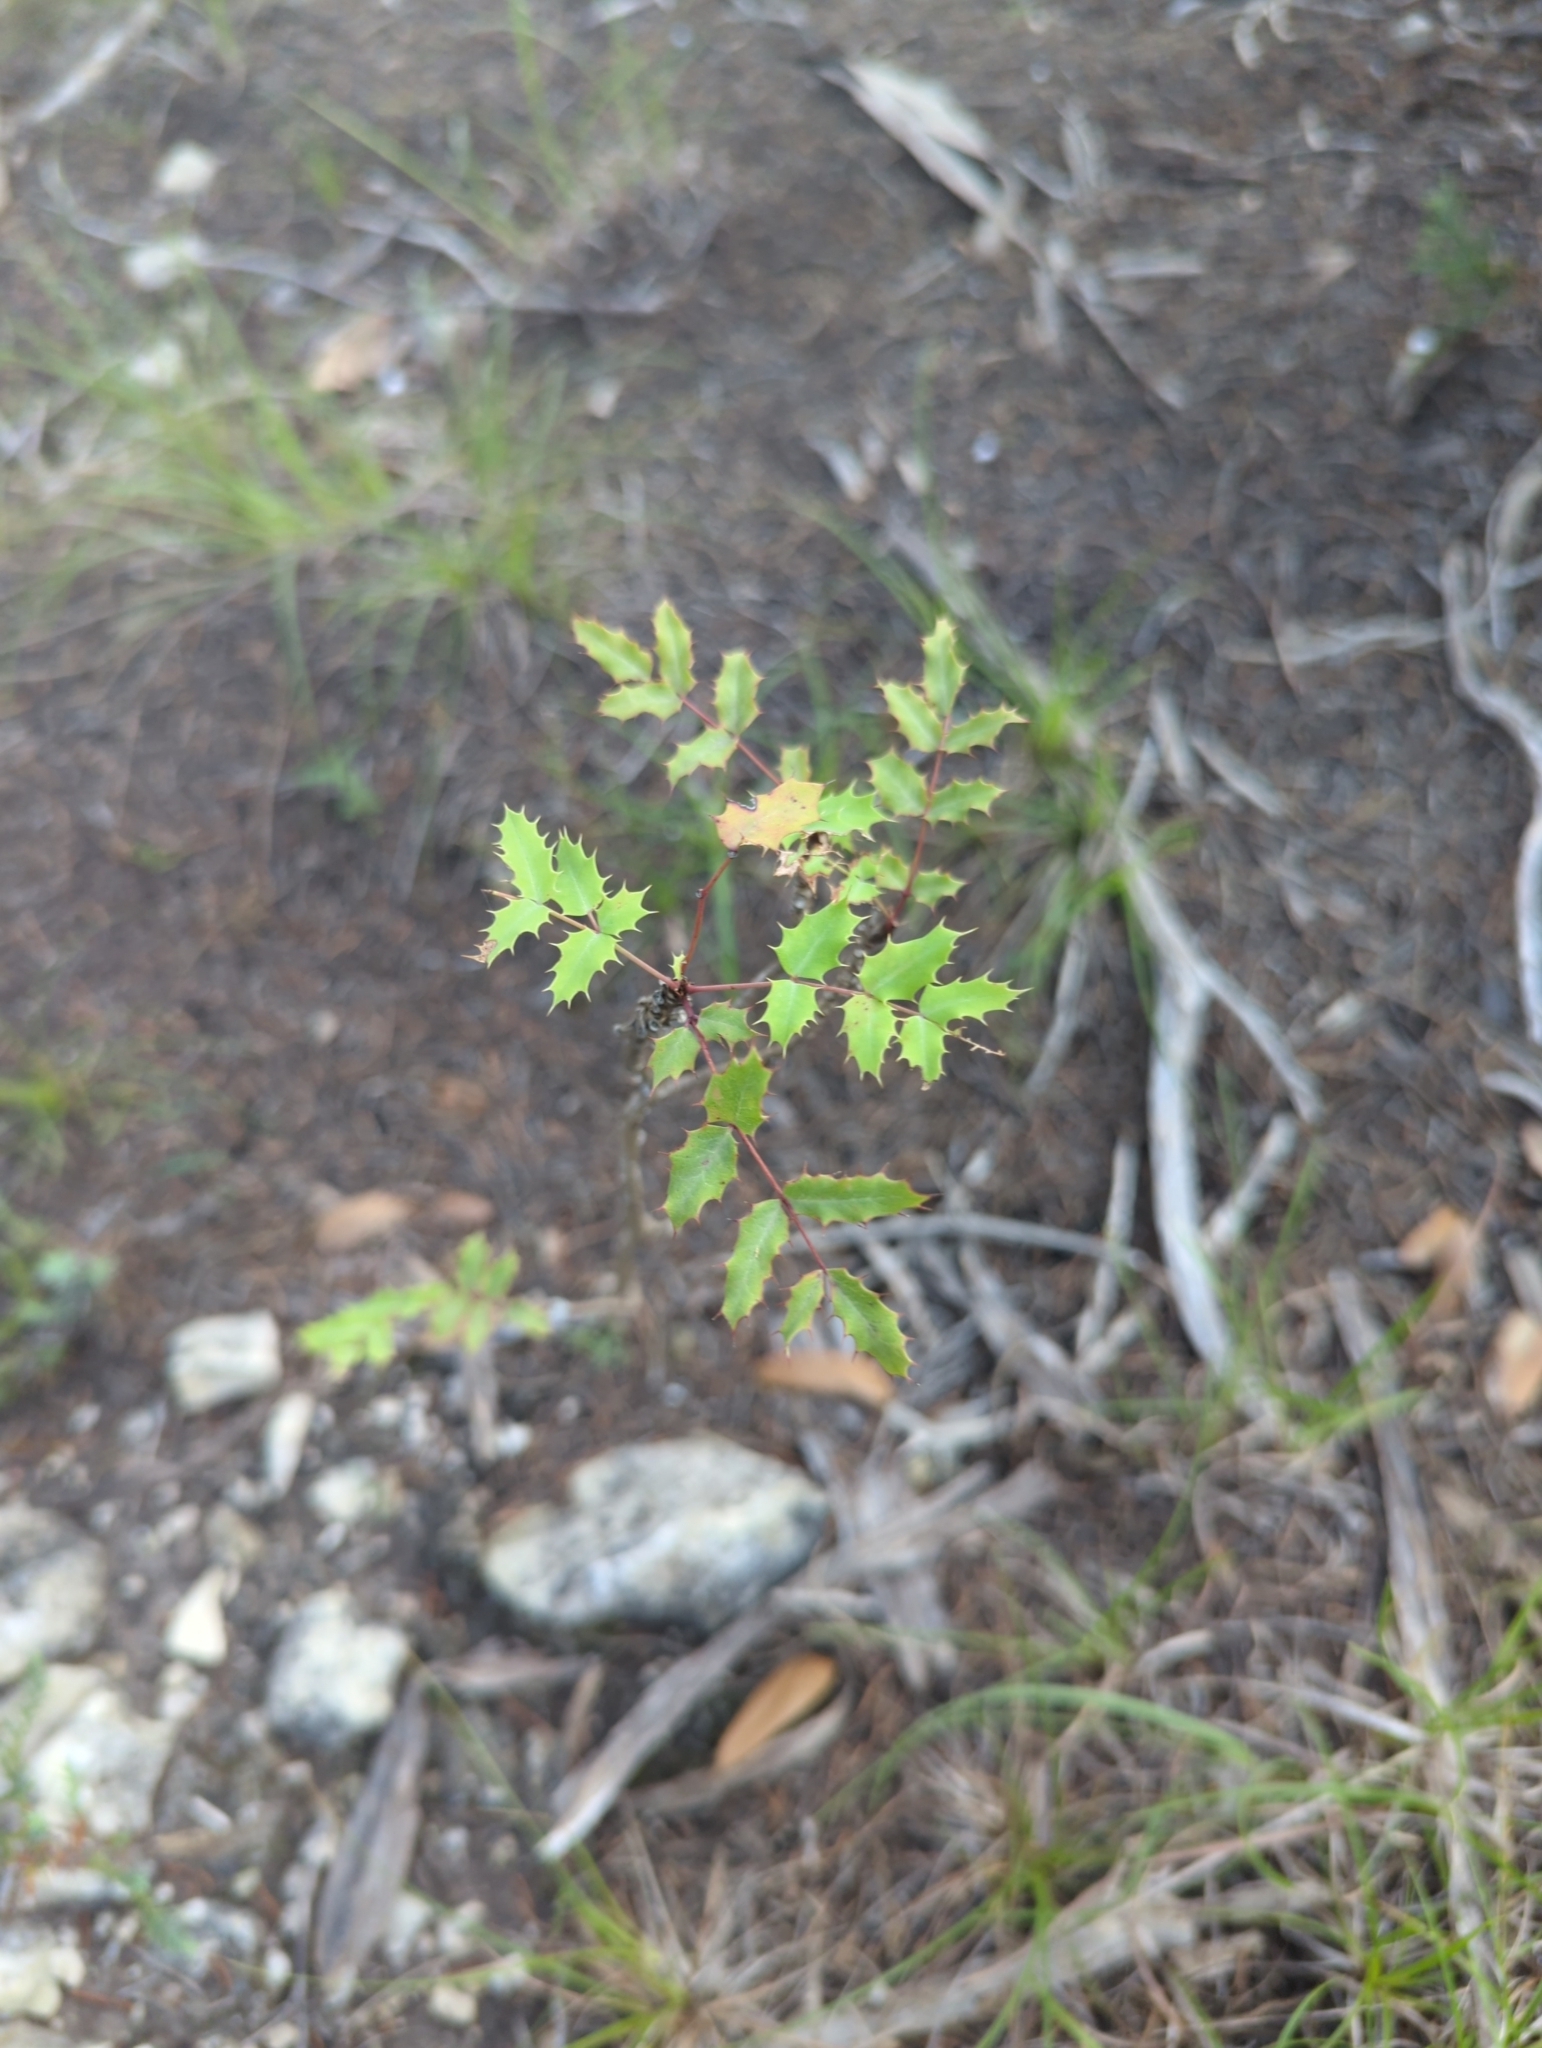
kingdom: Plantae
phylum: Tracheophyta
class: Magnoliopsida
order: Ranunculales
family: Berberidaceae
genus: Berberis
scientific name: Berberis swaseyi
